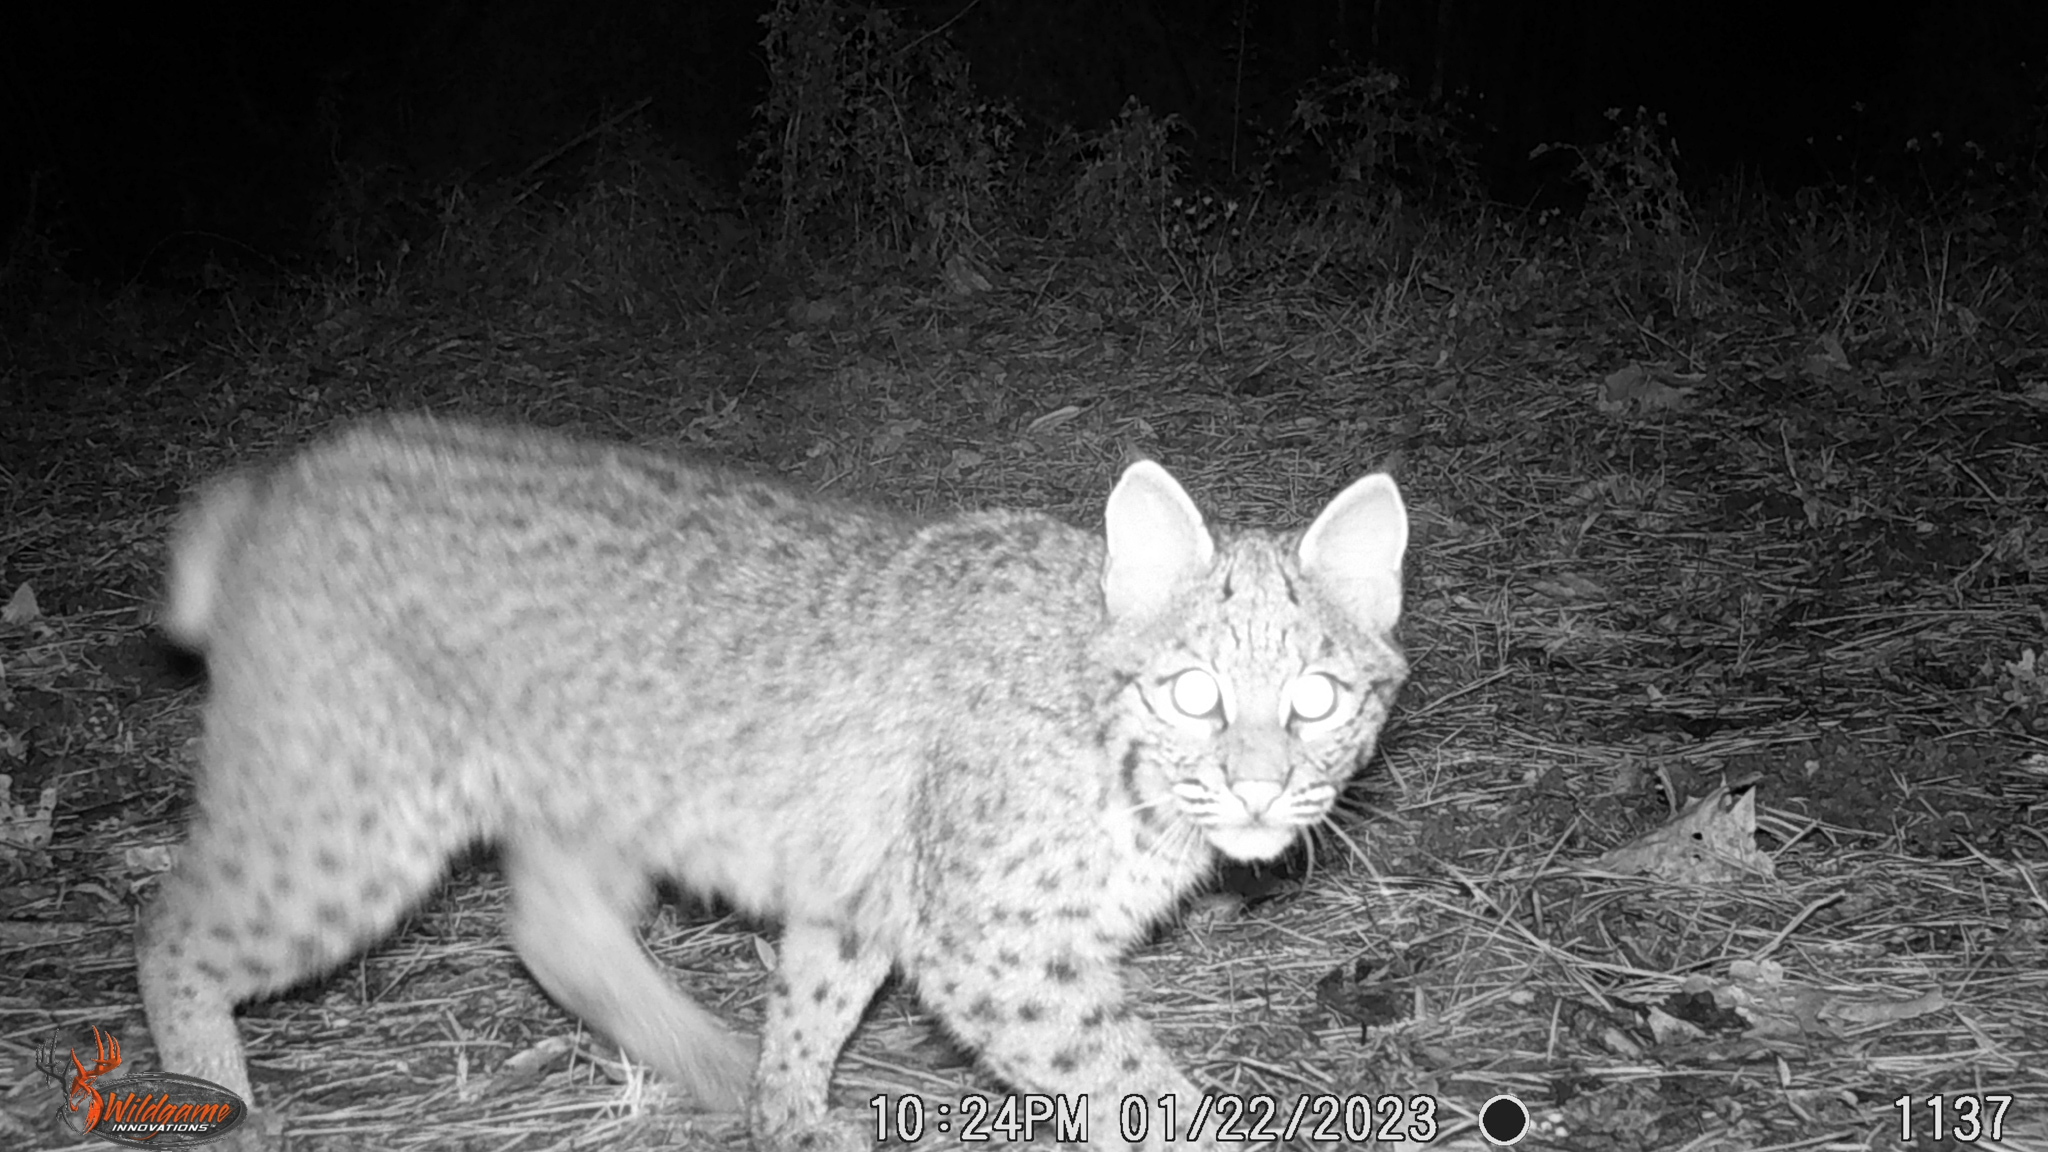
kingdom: Animalia
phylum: Chordata
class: Mammalia
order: Carnivora
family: Felidae
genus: Lynx
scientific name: Lynx rufus
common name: Bobcat
